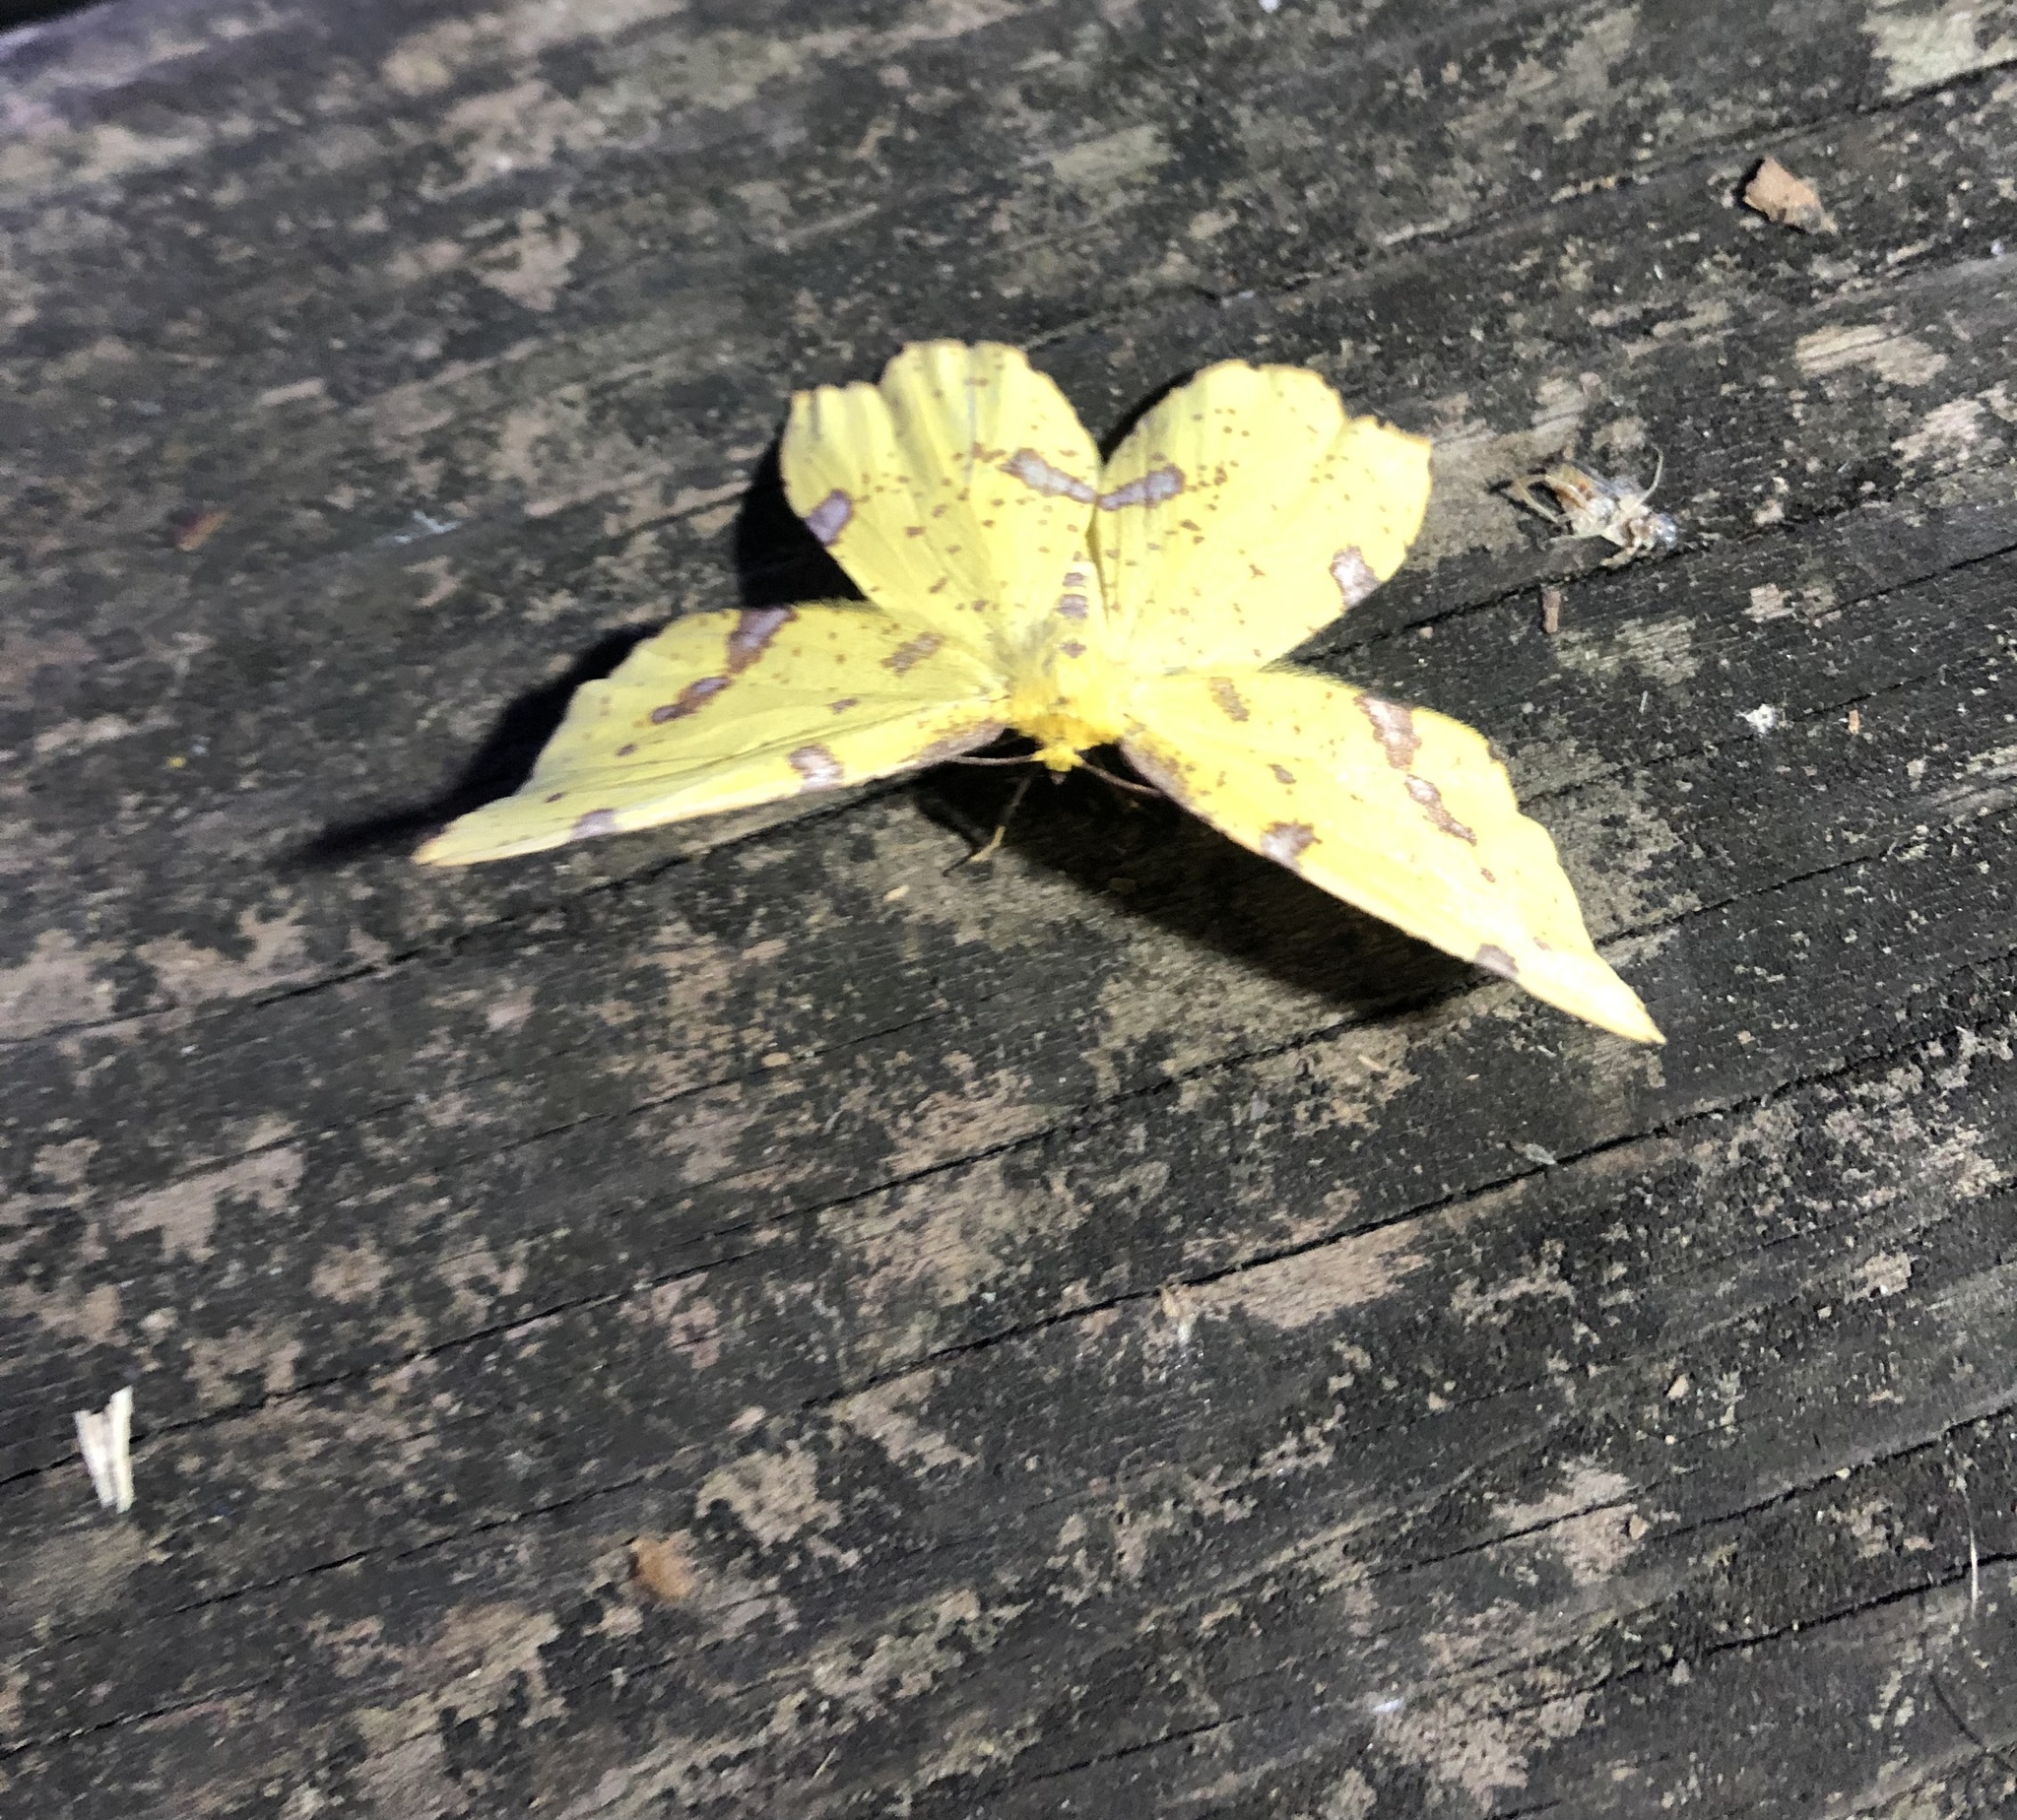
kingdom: Animalia
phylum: Arthropoda
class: Insecta
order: Lepidoptera
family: Geometridae
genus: Xanthotype
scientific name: Xanthotype
